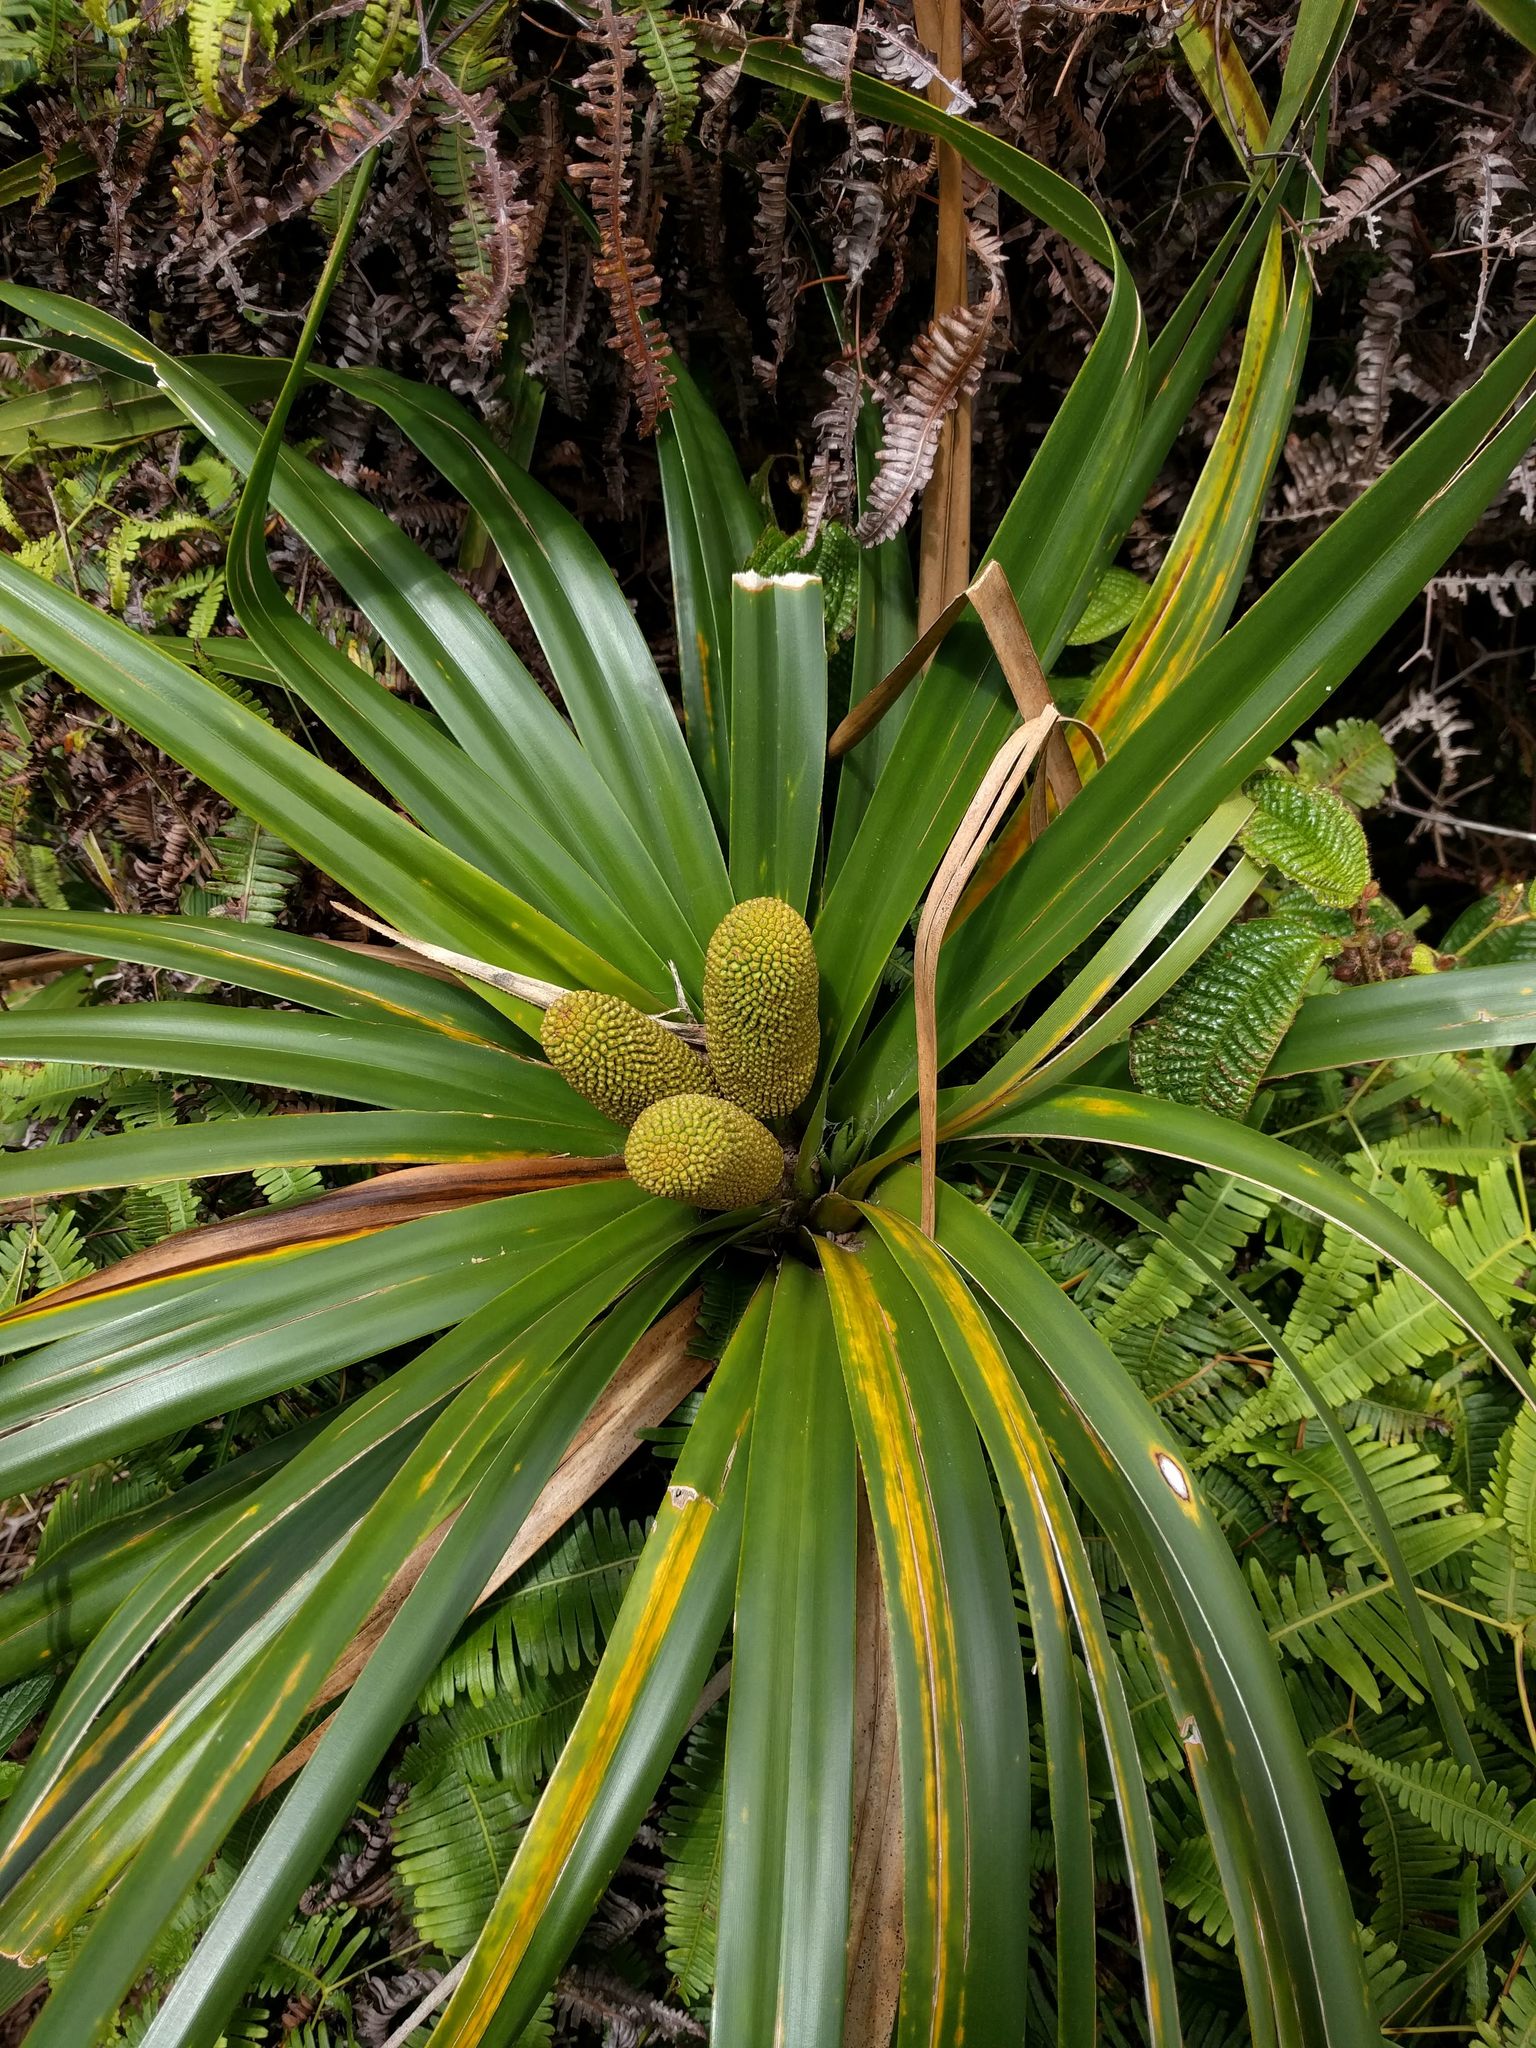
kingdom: Plantae
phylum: Tracheophyta
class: Liliopsida
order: Pandanales
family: Pandanaceae
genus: Freycinetia
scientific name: Freycinetia arborea
